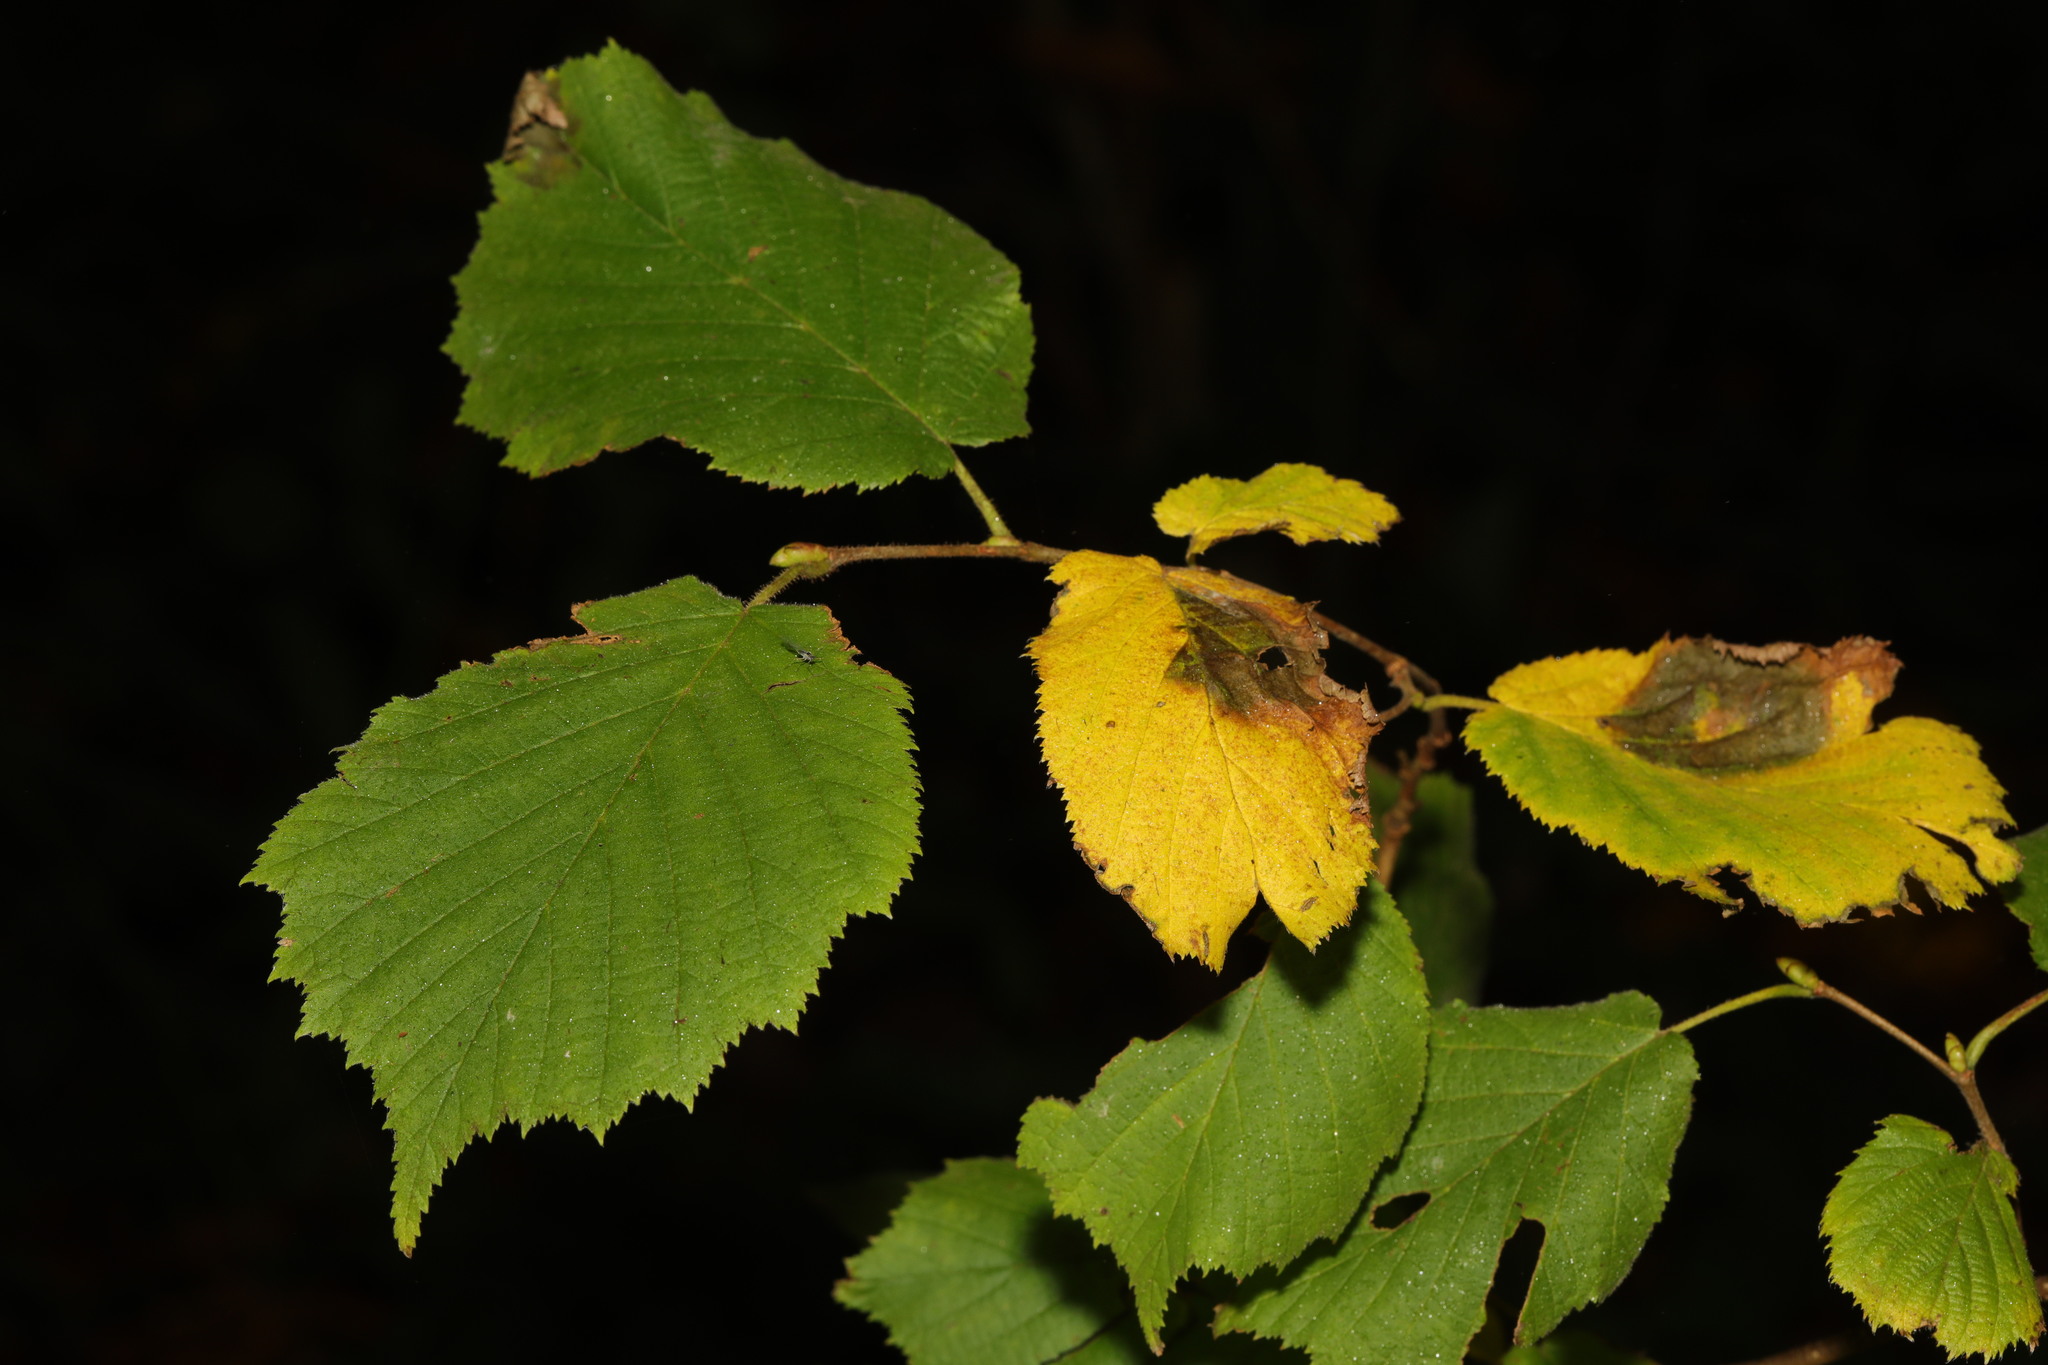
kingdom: Plantae
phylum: Tracheophyta
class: Magnoliopsida
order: Fagales
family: Betulaceae
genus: Corylus
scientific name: Corylus avellana
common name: European hazel
